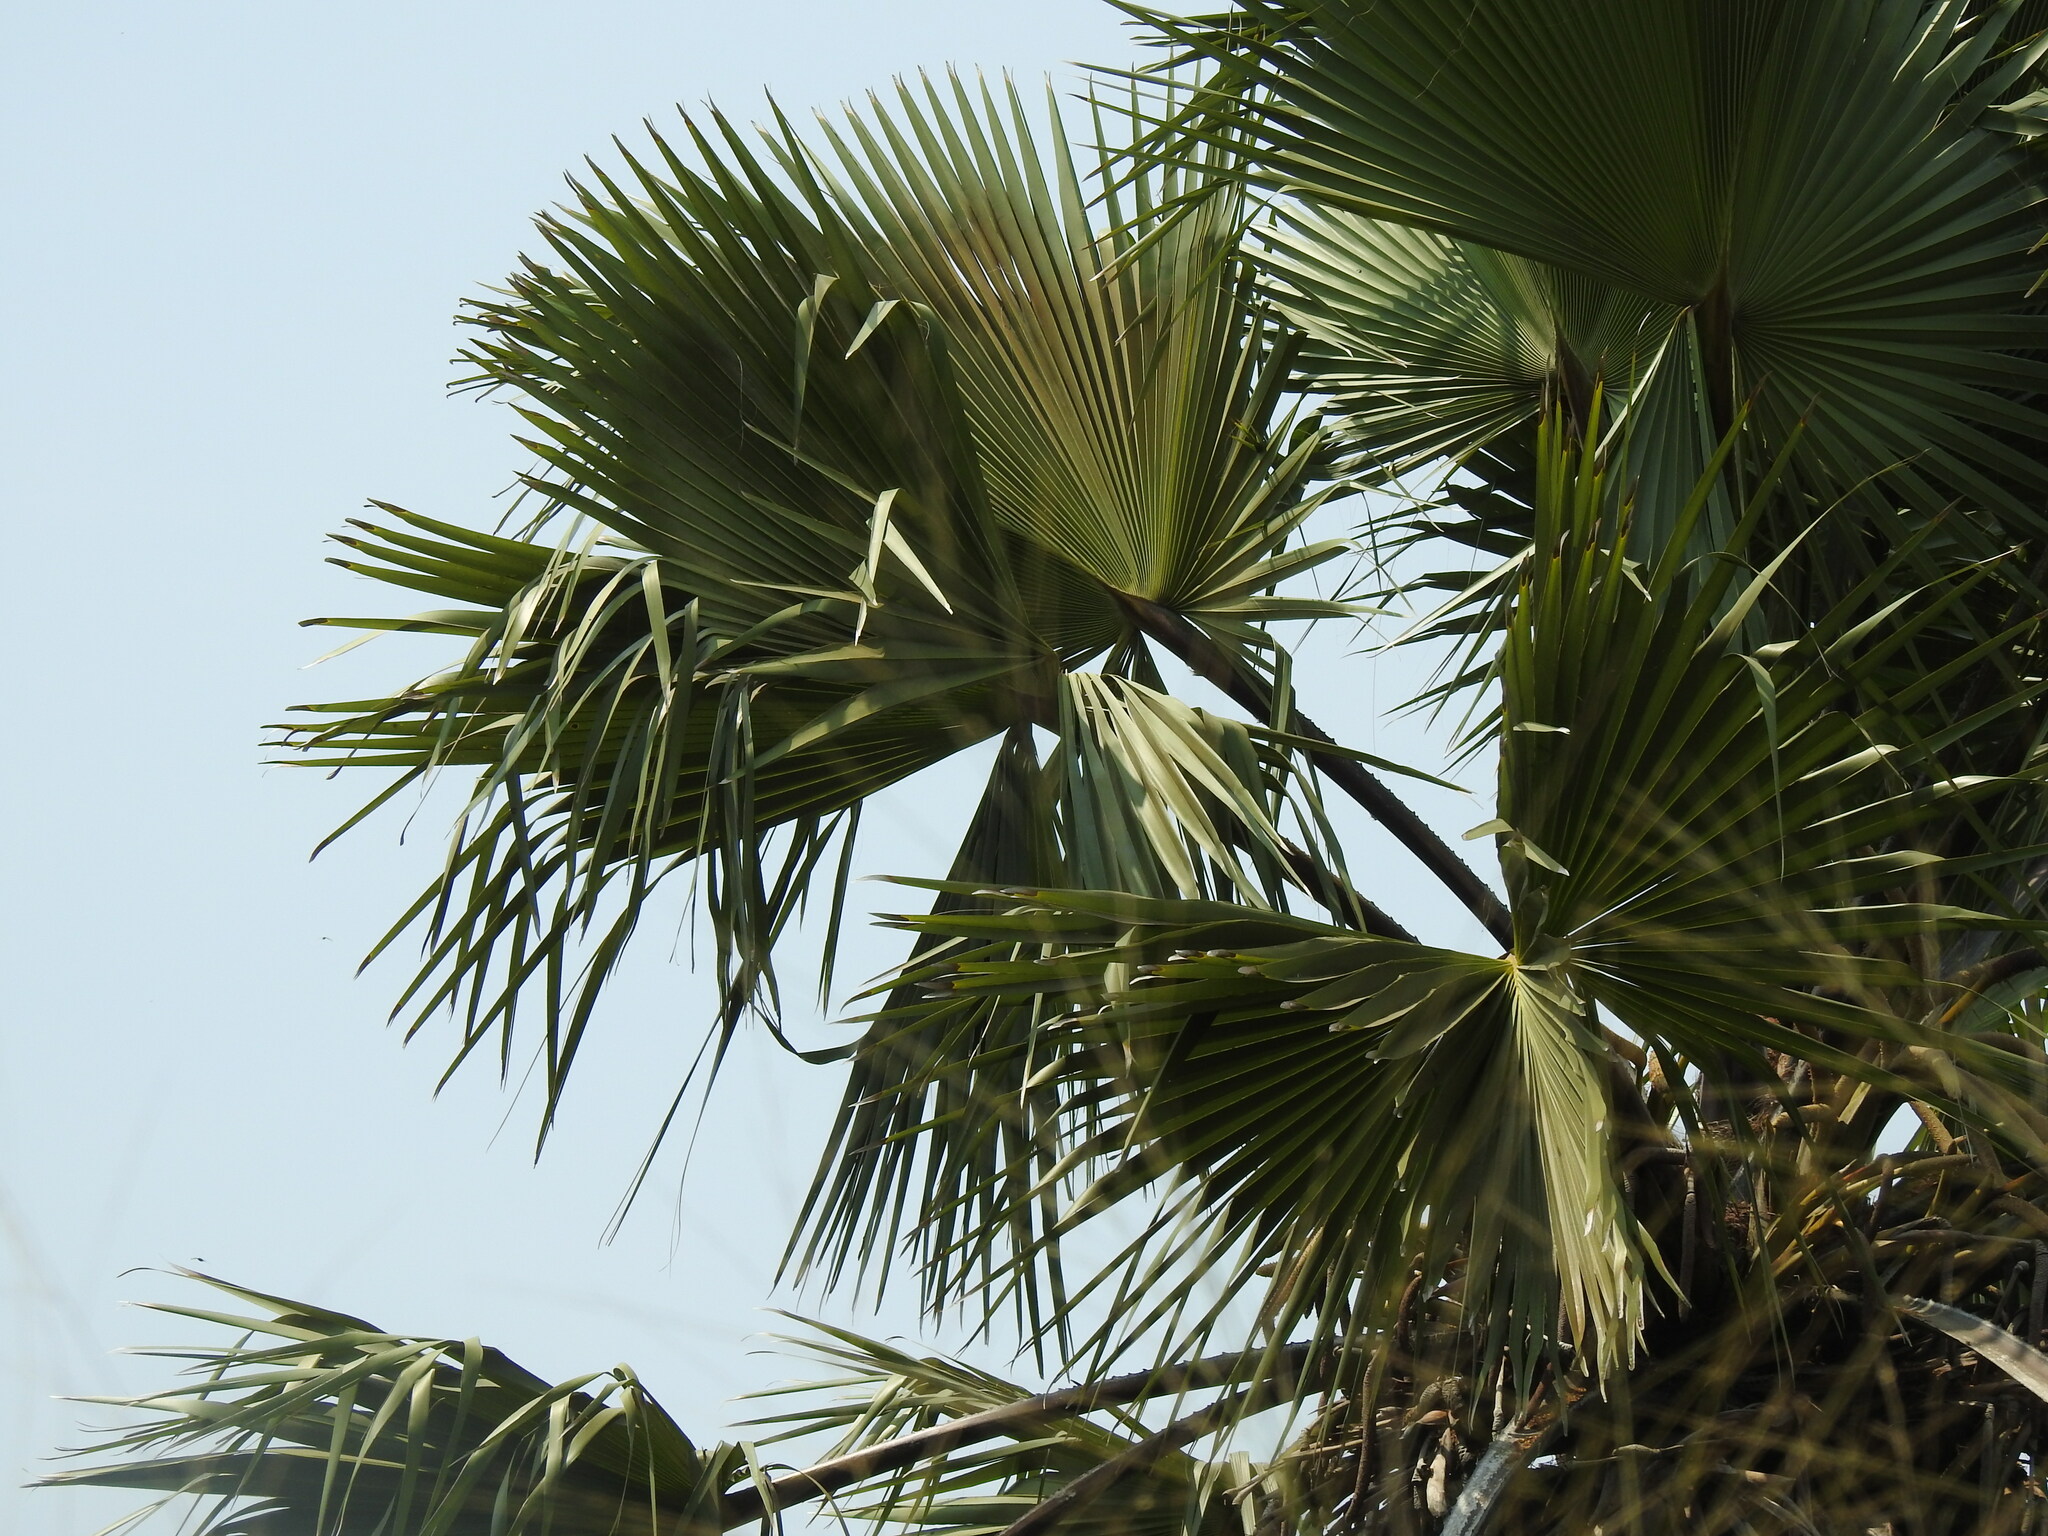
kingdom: Plantae
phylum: Tracheophyta
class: Liliopsida
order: Arecales
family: Arecaceae
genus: Borassus
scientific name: Borassus aethiopum
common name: Elephant palm
